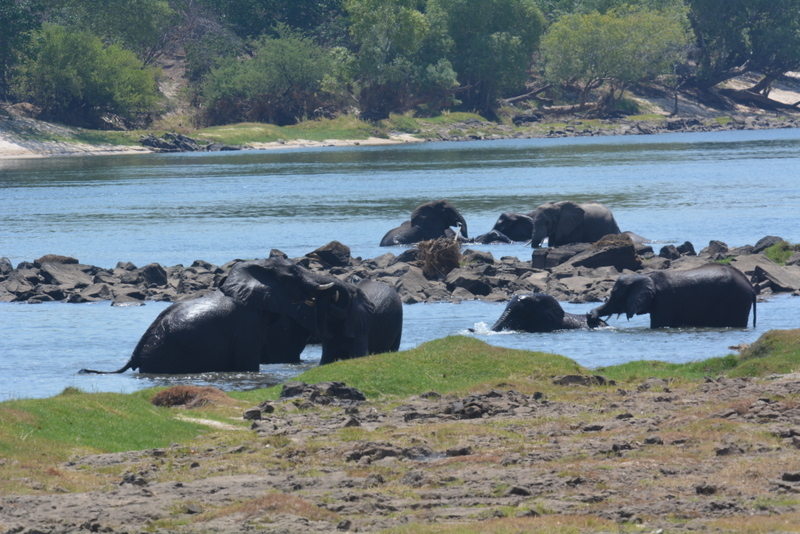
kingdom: Animalia
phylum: Chordata
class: Mammalia
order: Proboscidea
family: Elephantidae
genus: Loxodonta
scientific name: Loxodonta africana
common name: African elephant
